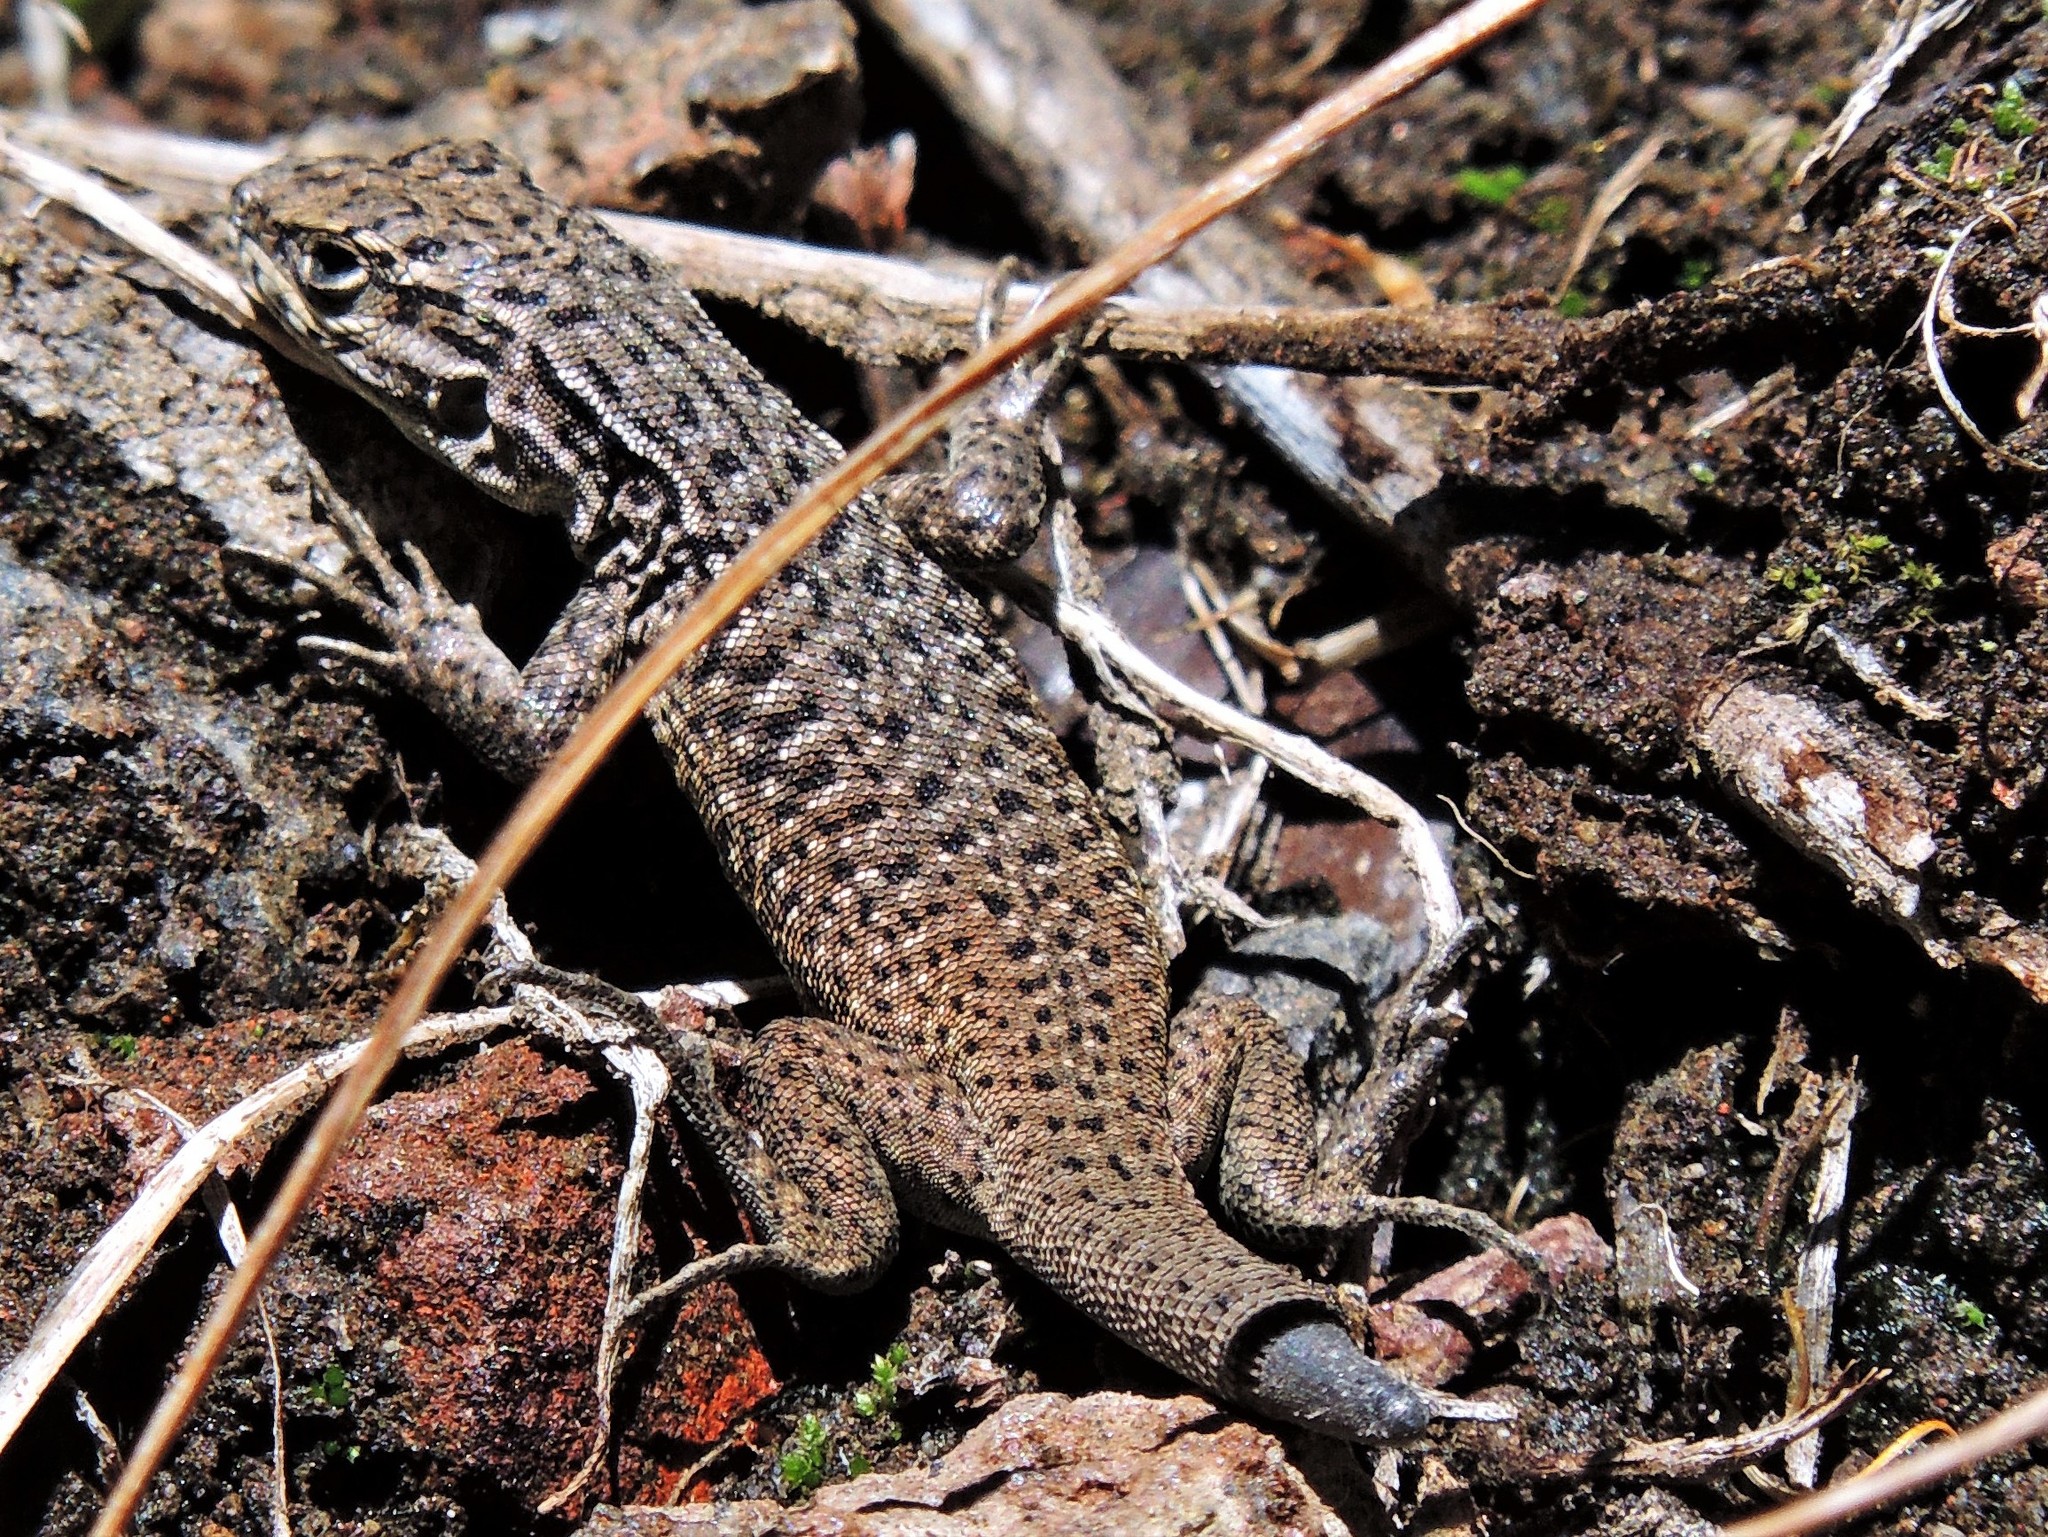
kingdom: Animalia
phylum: Chordata
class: Squamata
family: Liolaemidae
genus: Liolaemus
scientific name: Liolaemus neuquensis
